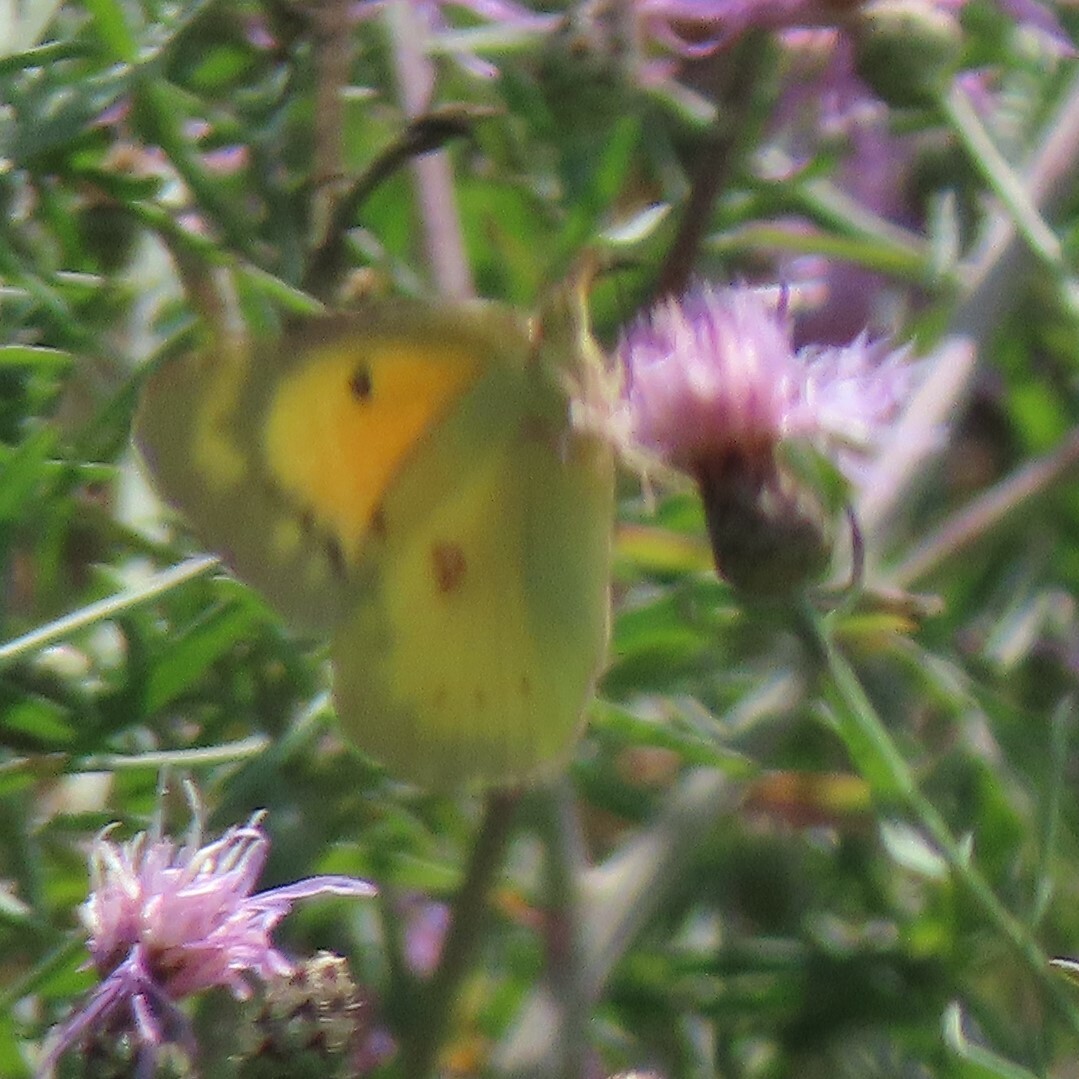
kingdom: Animalia
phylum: Arthropoda
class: Insecta
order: Lepidoptera
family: Pieridae
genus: Colias
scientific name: Colias eurytheme
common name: Alfalfa butterfly
